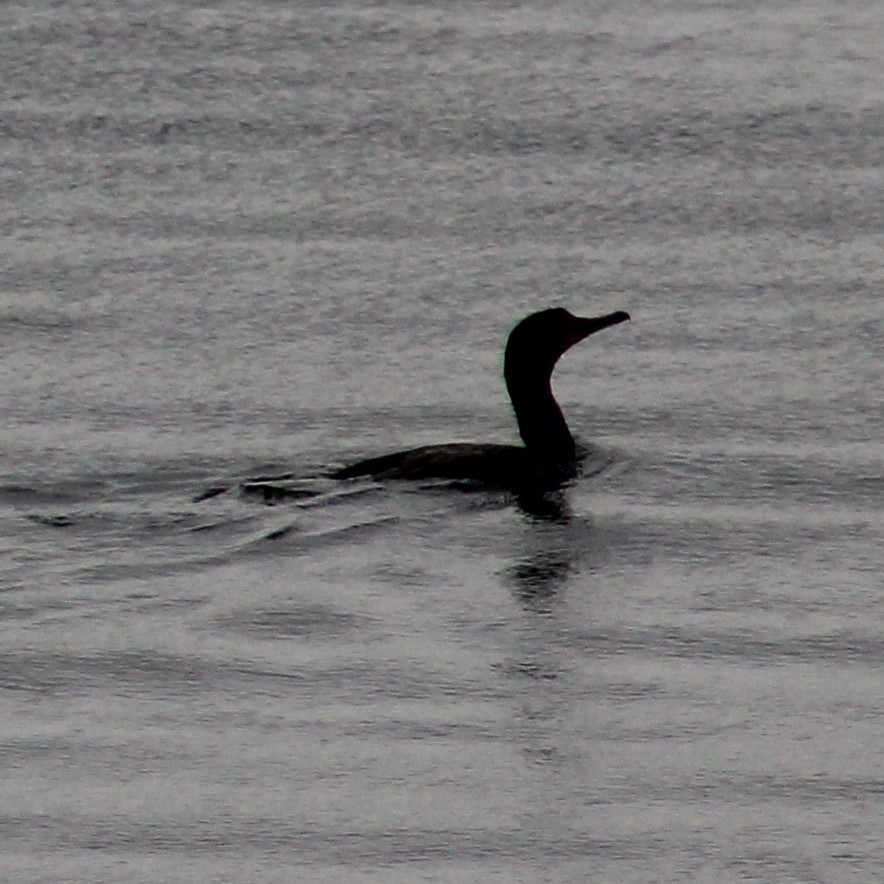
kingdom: Animalia
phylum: Chordata
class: Aves
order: Suliformes
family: Phalacrocoracidae
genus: Phalacrocorax
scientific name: Phalacrocorax auritus
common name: Double-crested cormorant
